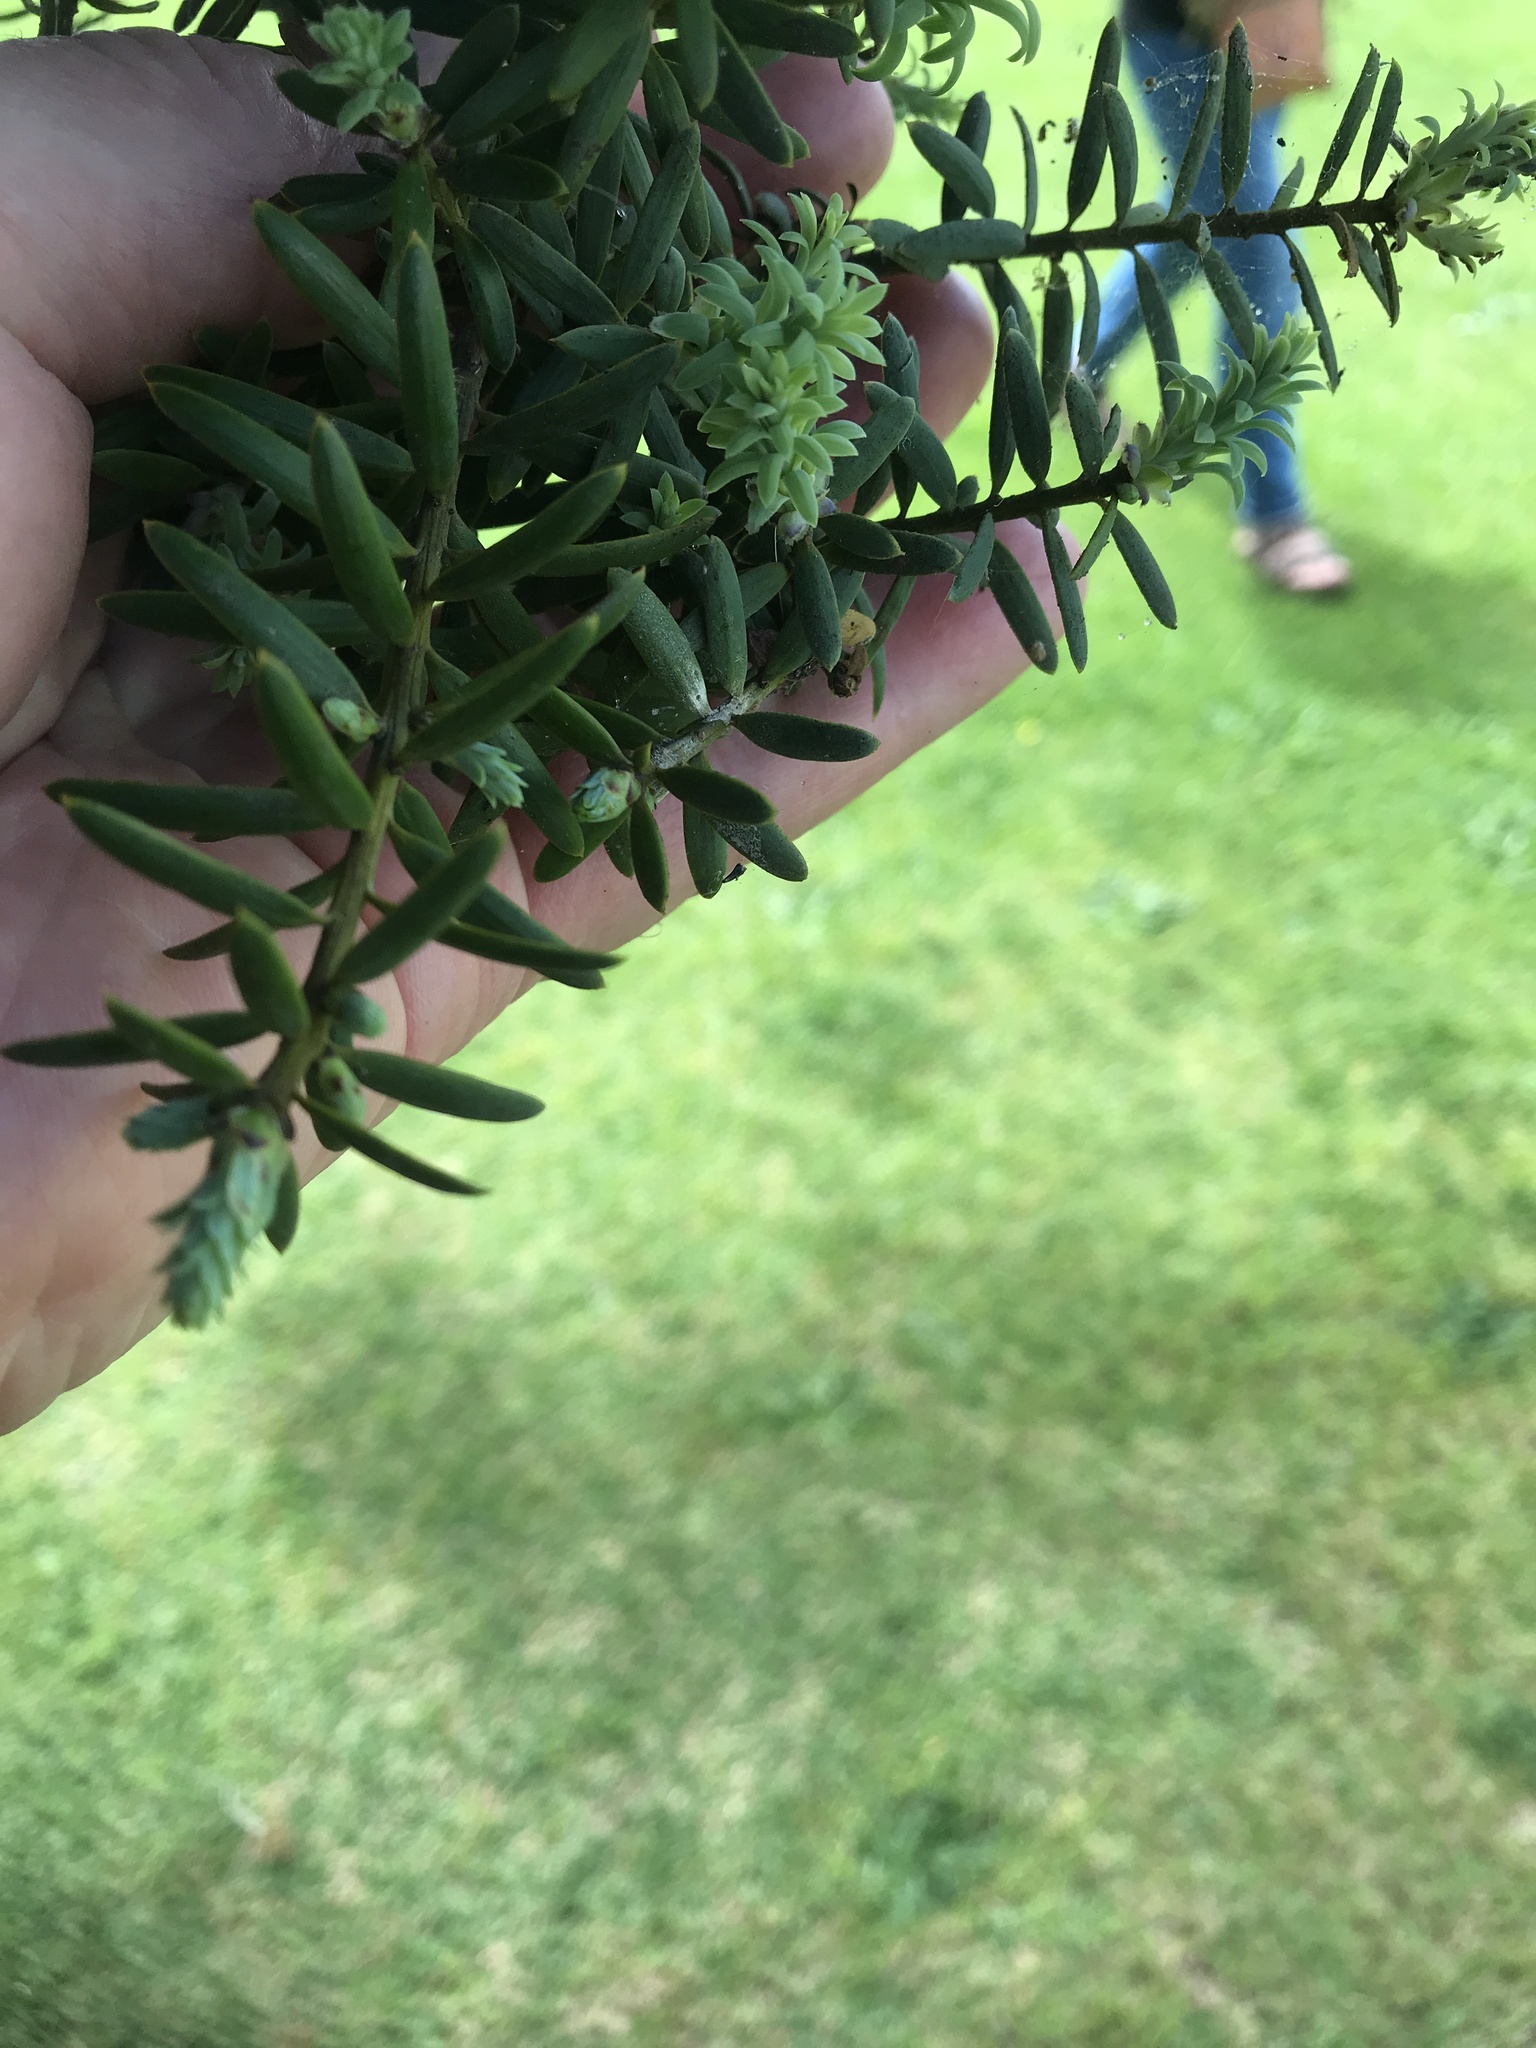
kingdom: Plantae
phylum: Tracheophyta
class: Pinopsida
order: Pinales
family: Podocarpaceae
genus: Podocarpus
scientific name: Podocarpus totara
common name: Totara
